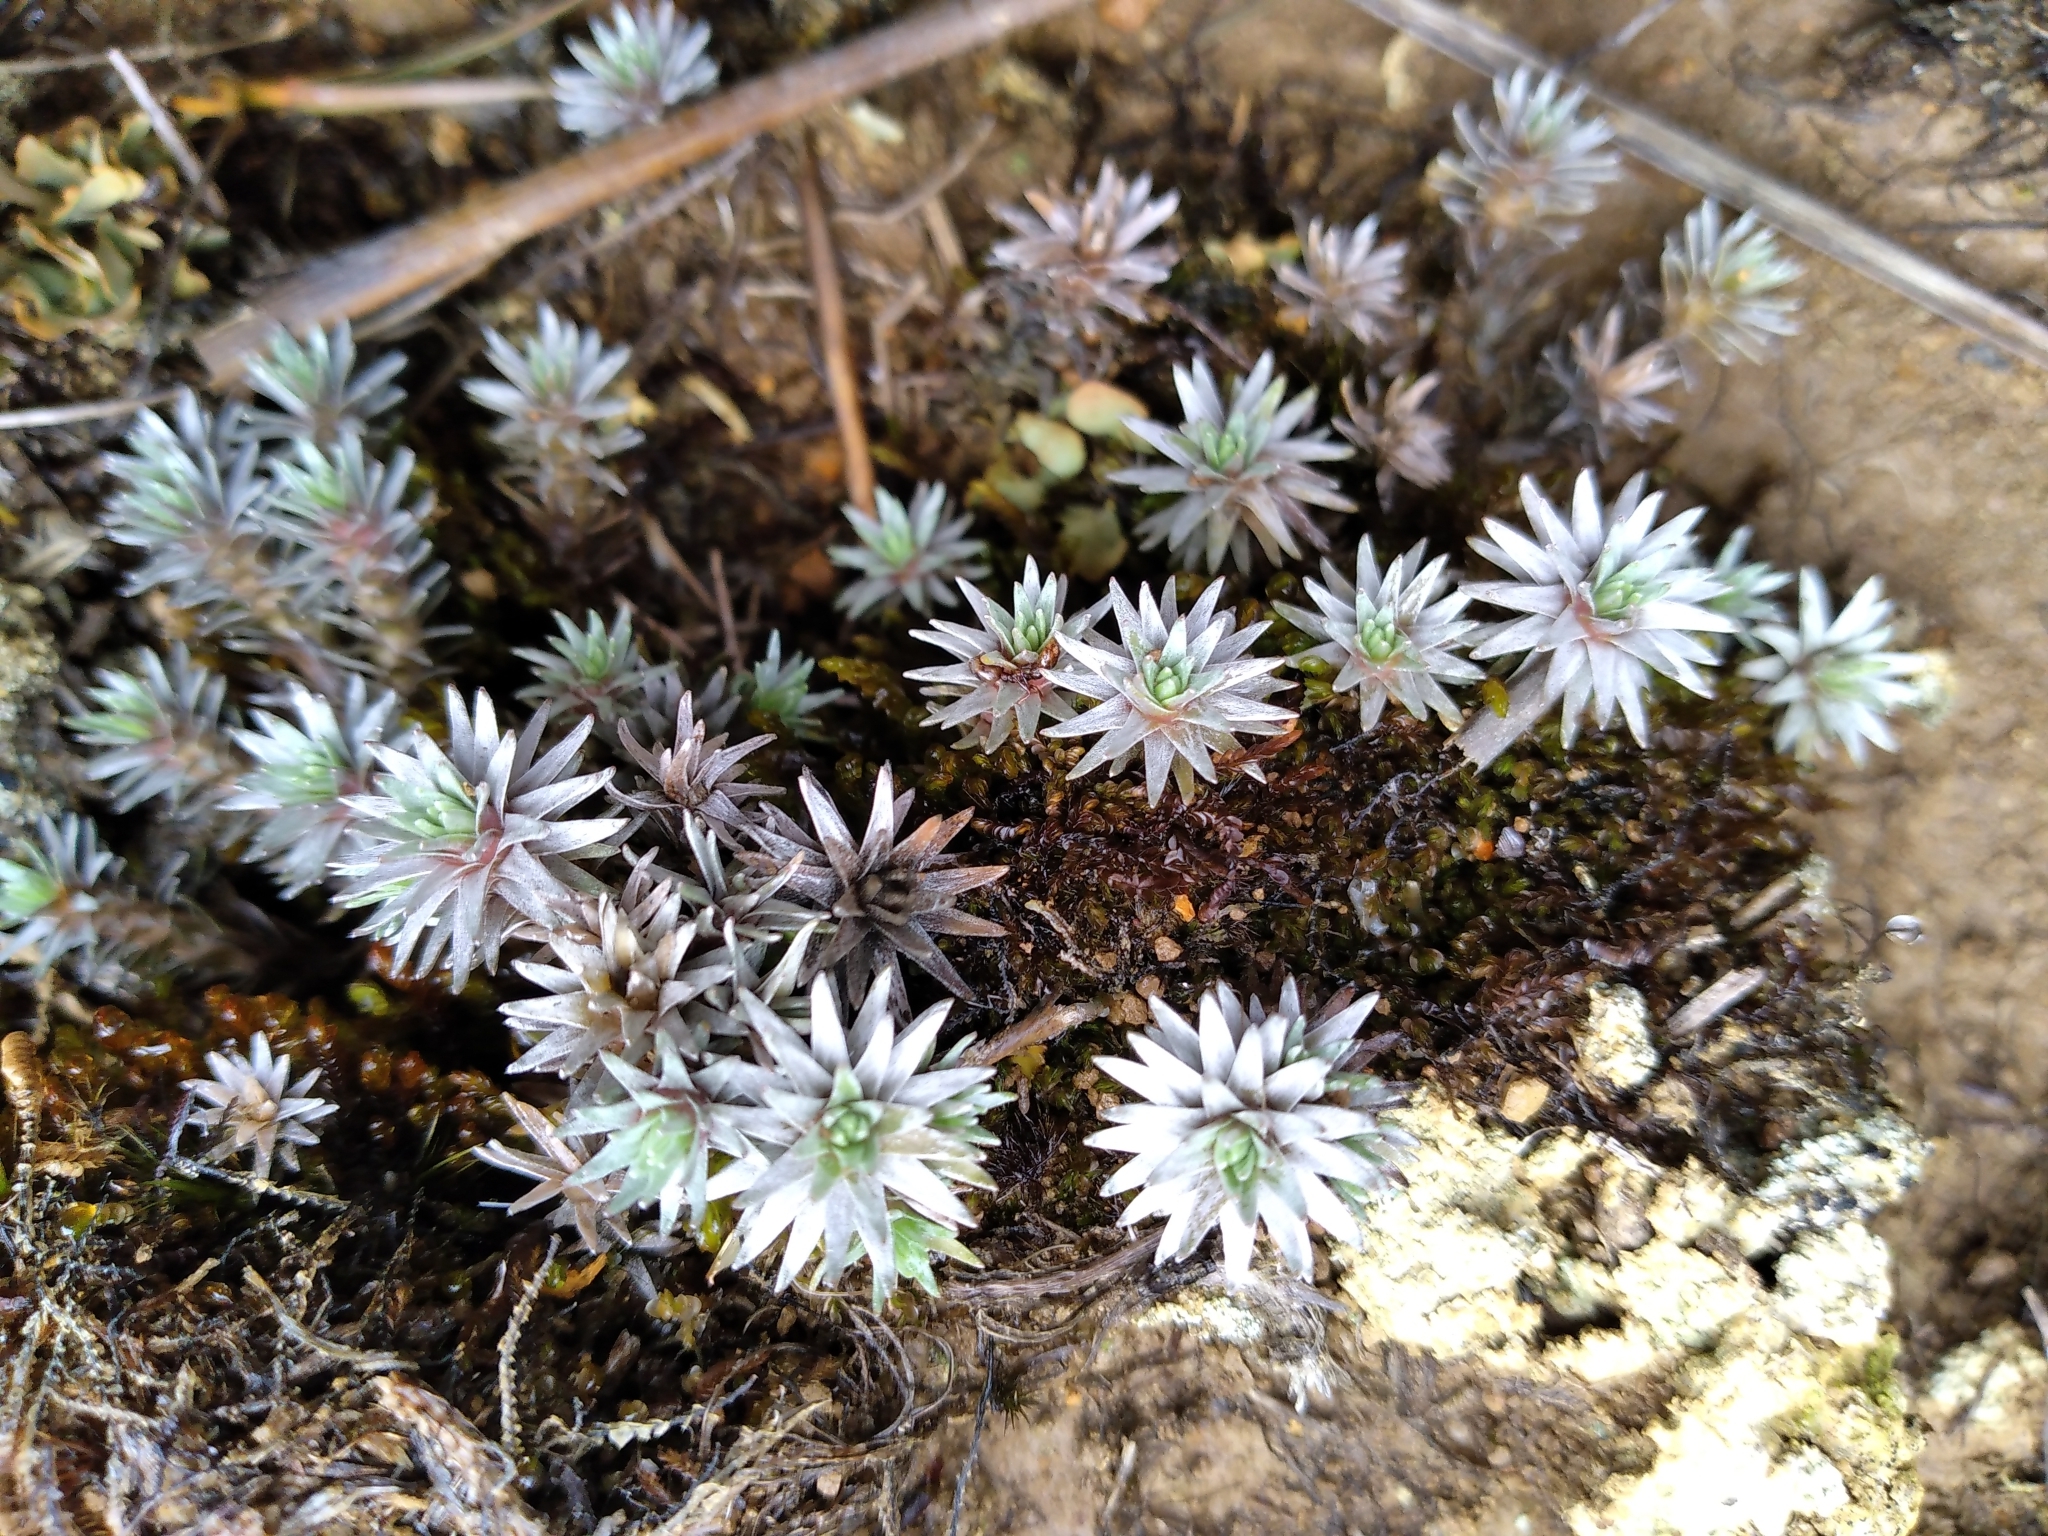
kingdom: Plantae
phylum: Tracheophyta
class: Magnoliopsida
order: Asterales
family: Asteraceae
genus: Raoulia
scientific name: Raoulia grandiflora
